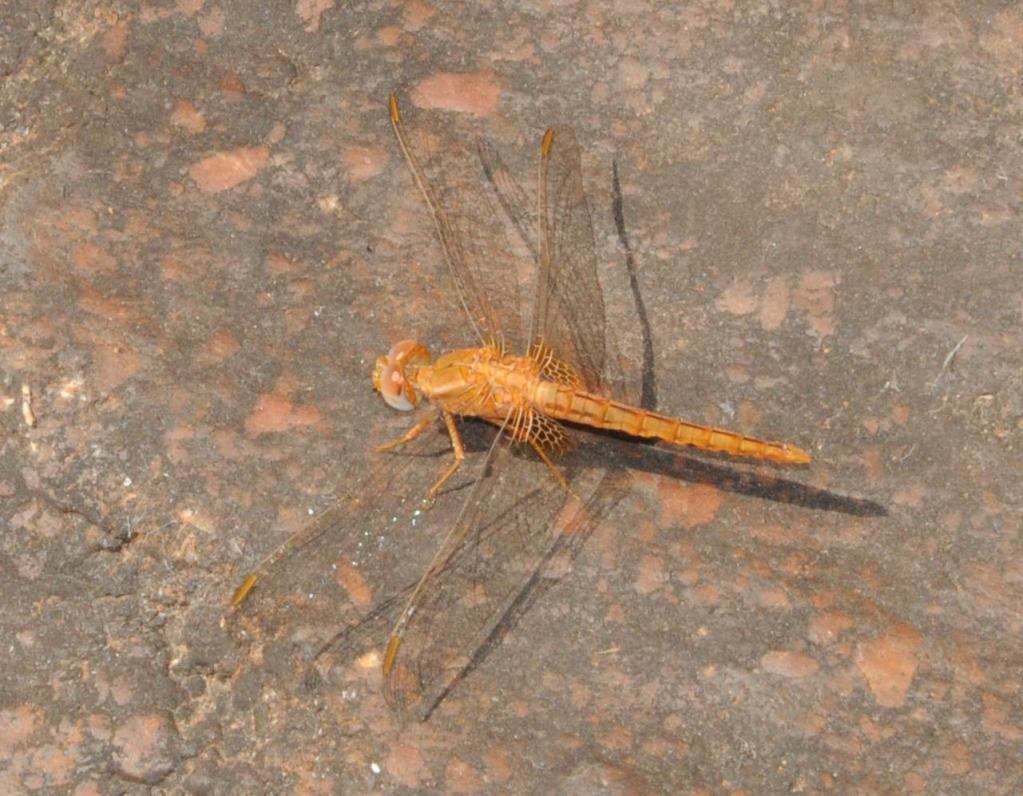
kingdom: Animalia
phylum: Arthropoda
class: Insecta
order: Odonata
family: Libellulidae
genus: Crocothemis
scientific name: Crocothemis sanguinolenta
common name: Little scarlet
